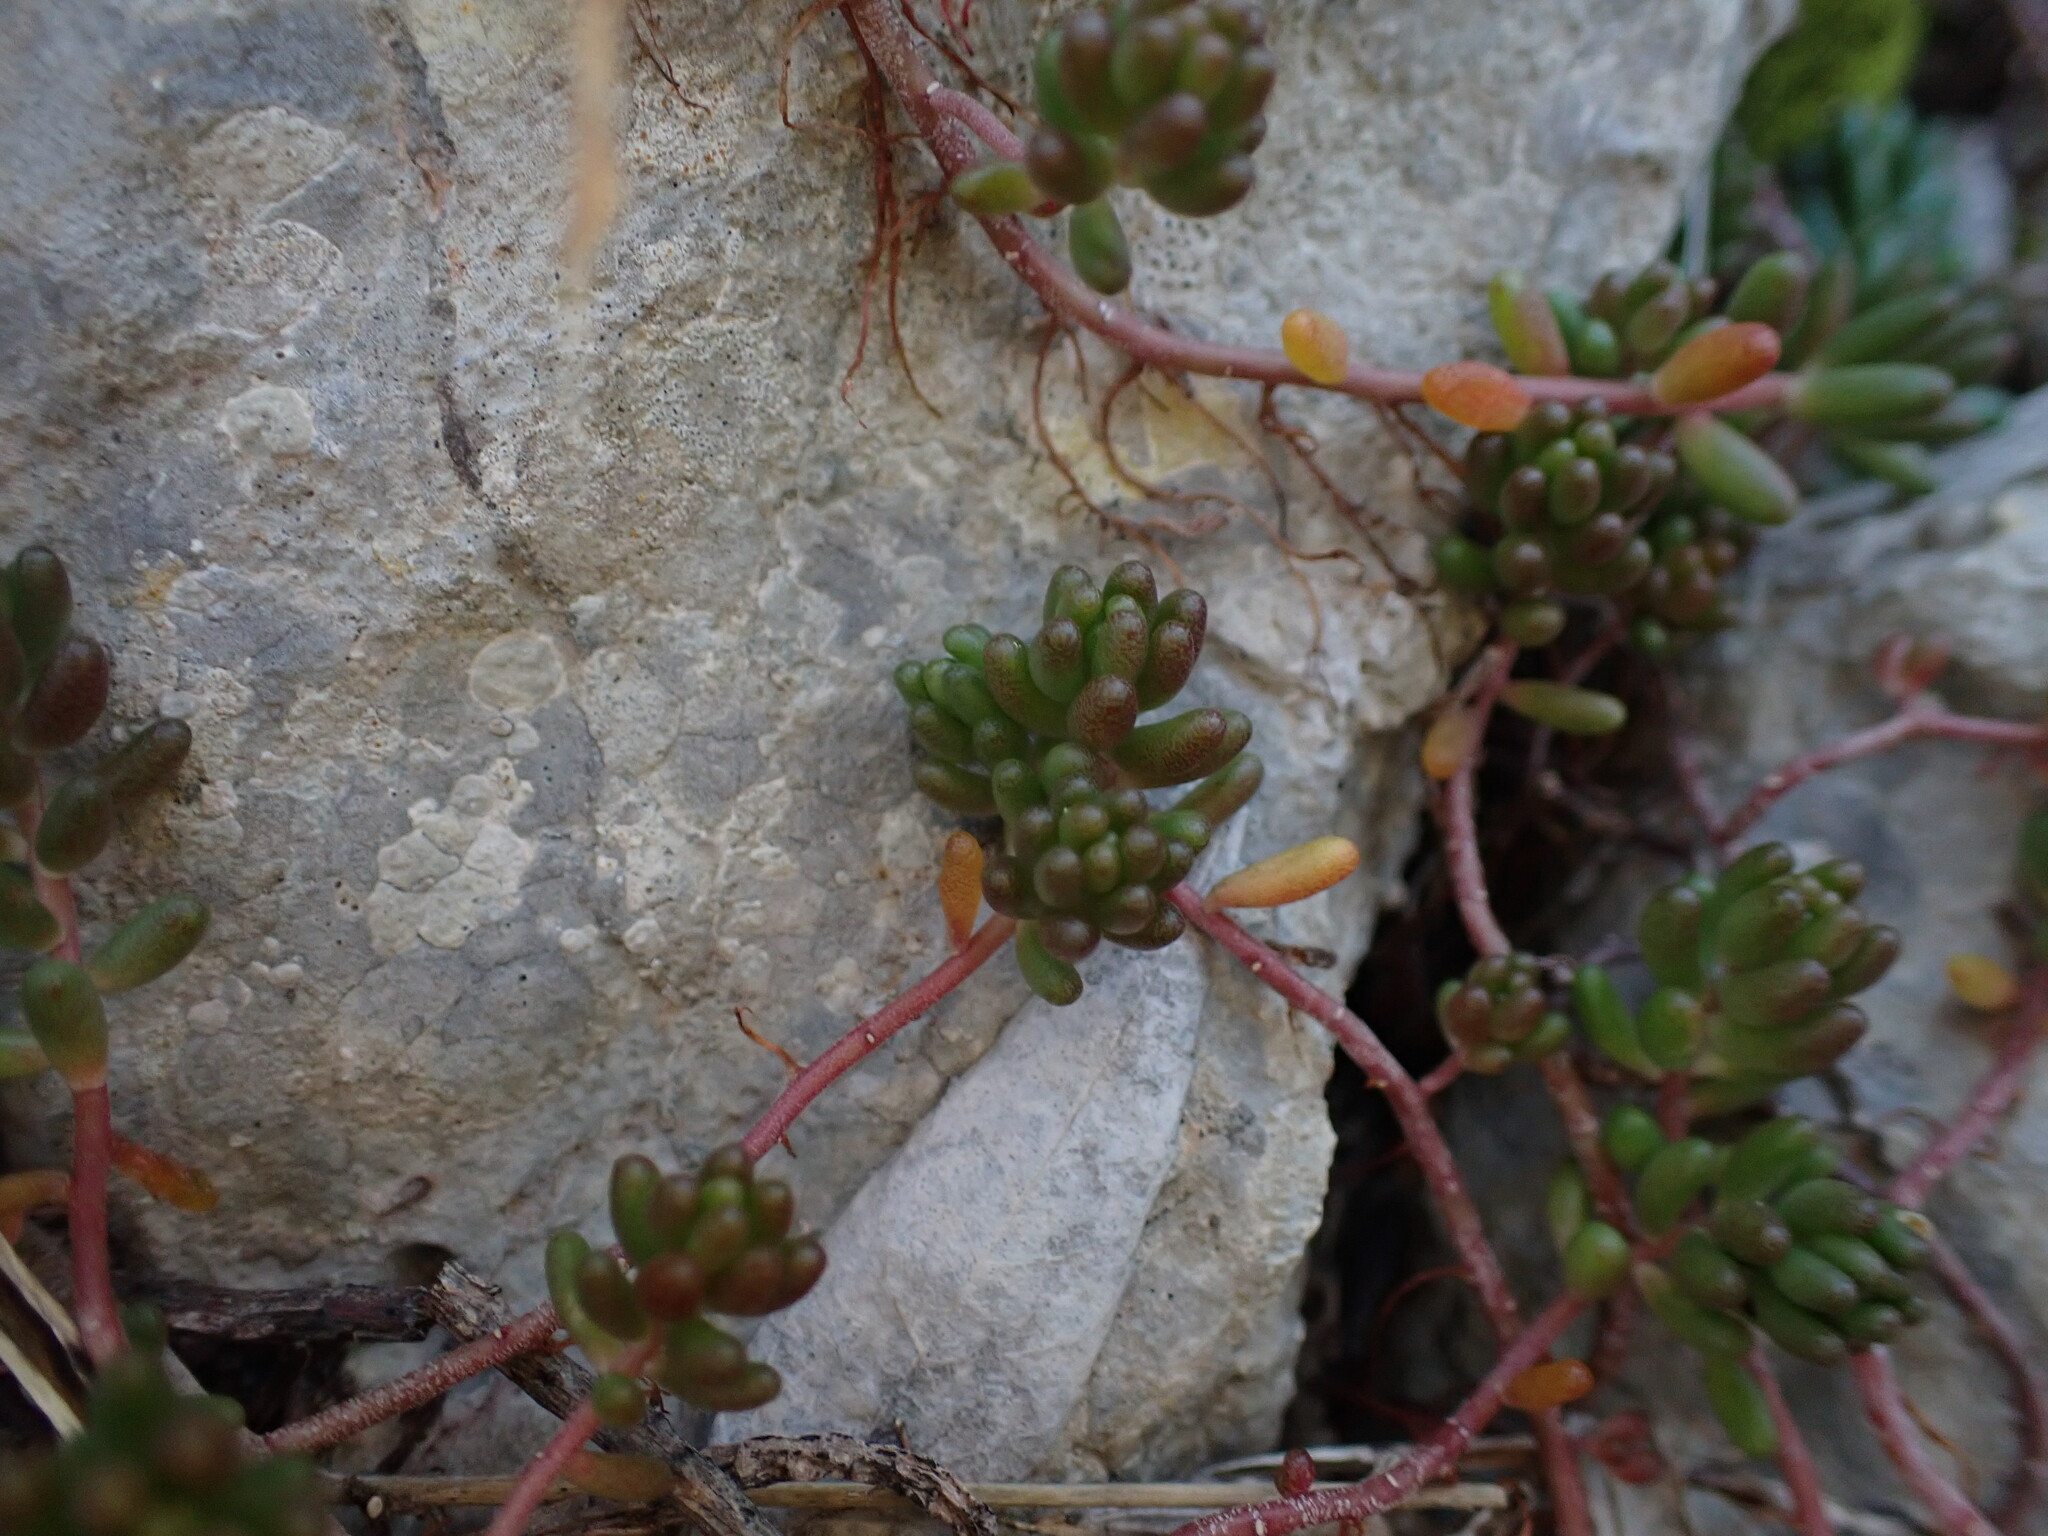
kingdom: Plantae
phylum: Tracheophyta
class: Magnoliopsida
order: Saxifragales
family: Crassulaceae
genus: Sedum
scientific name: Sedum album
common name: White stonecrop
